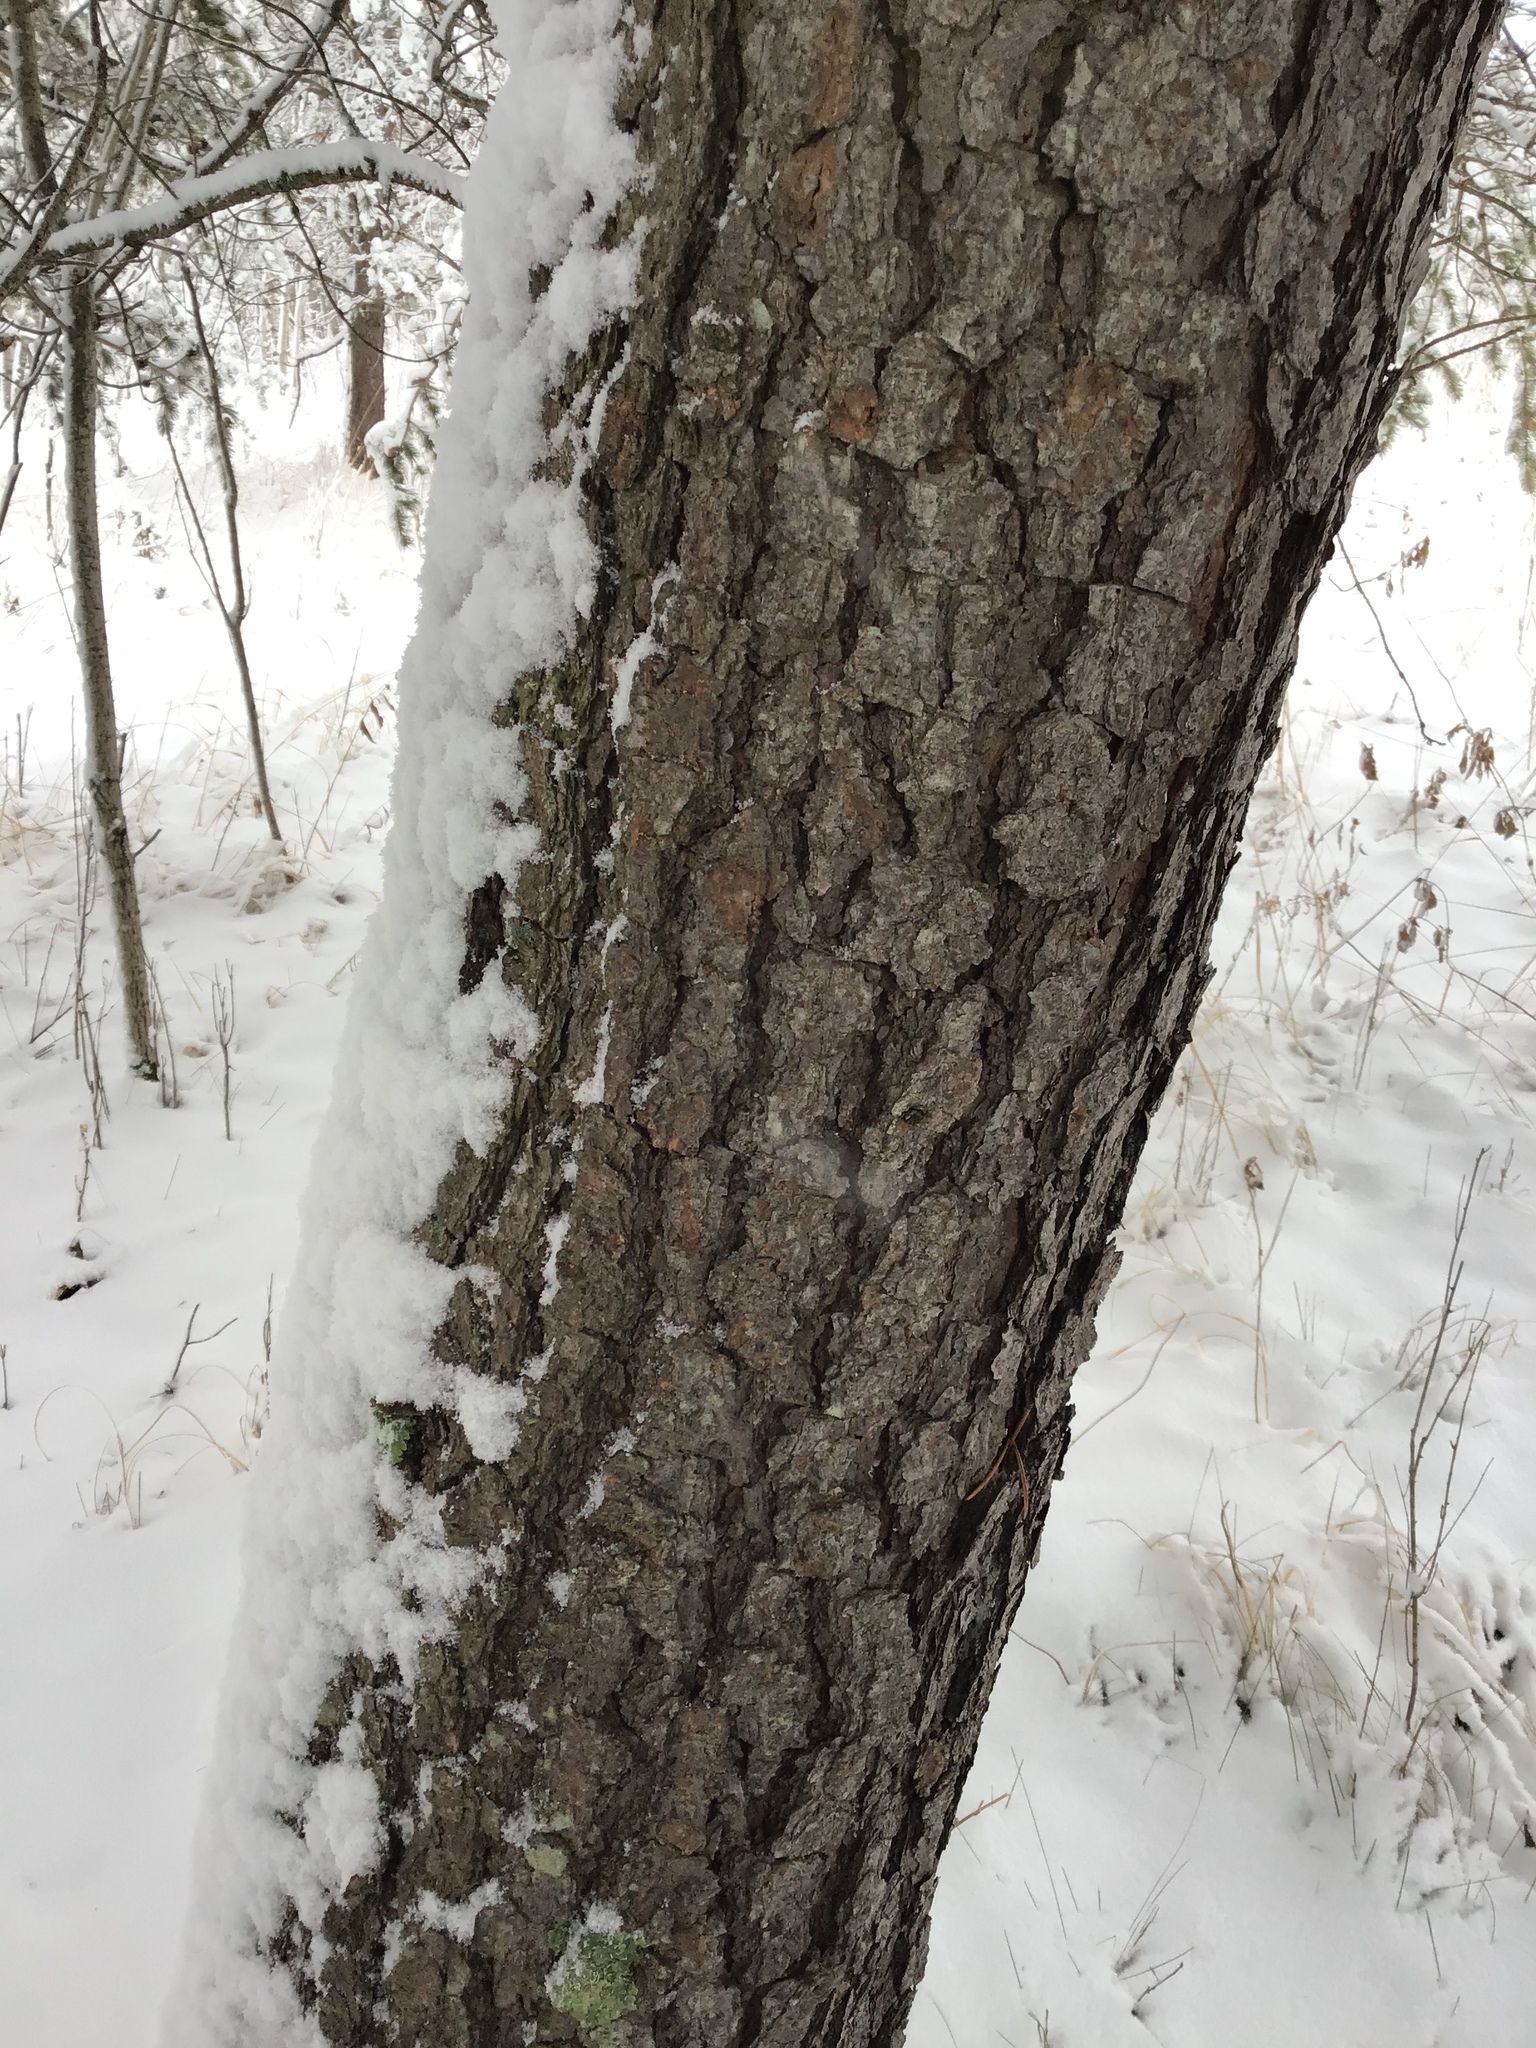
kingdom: Plantae
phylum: Tracheophyta
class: Pinopsida
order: Pinales
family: Pinaceae
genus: Pinus
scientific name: Pinus banksiana
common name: Jack pine
